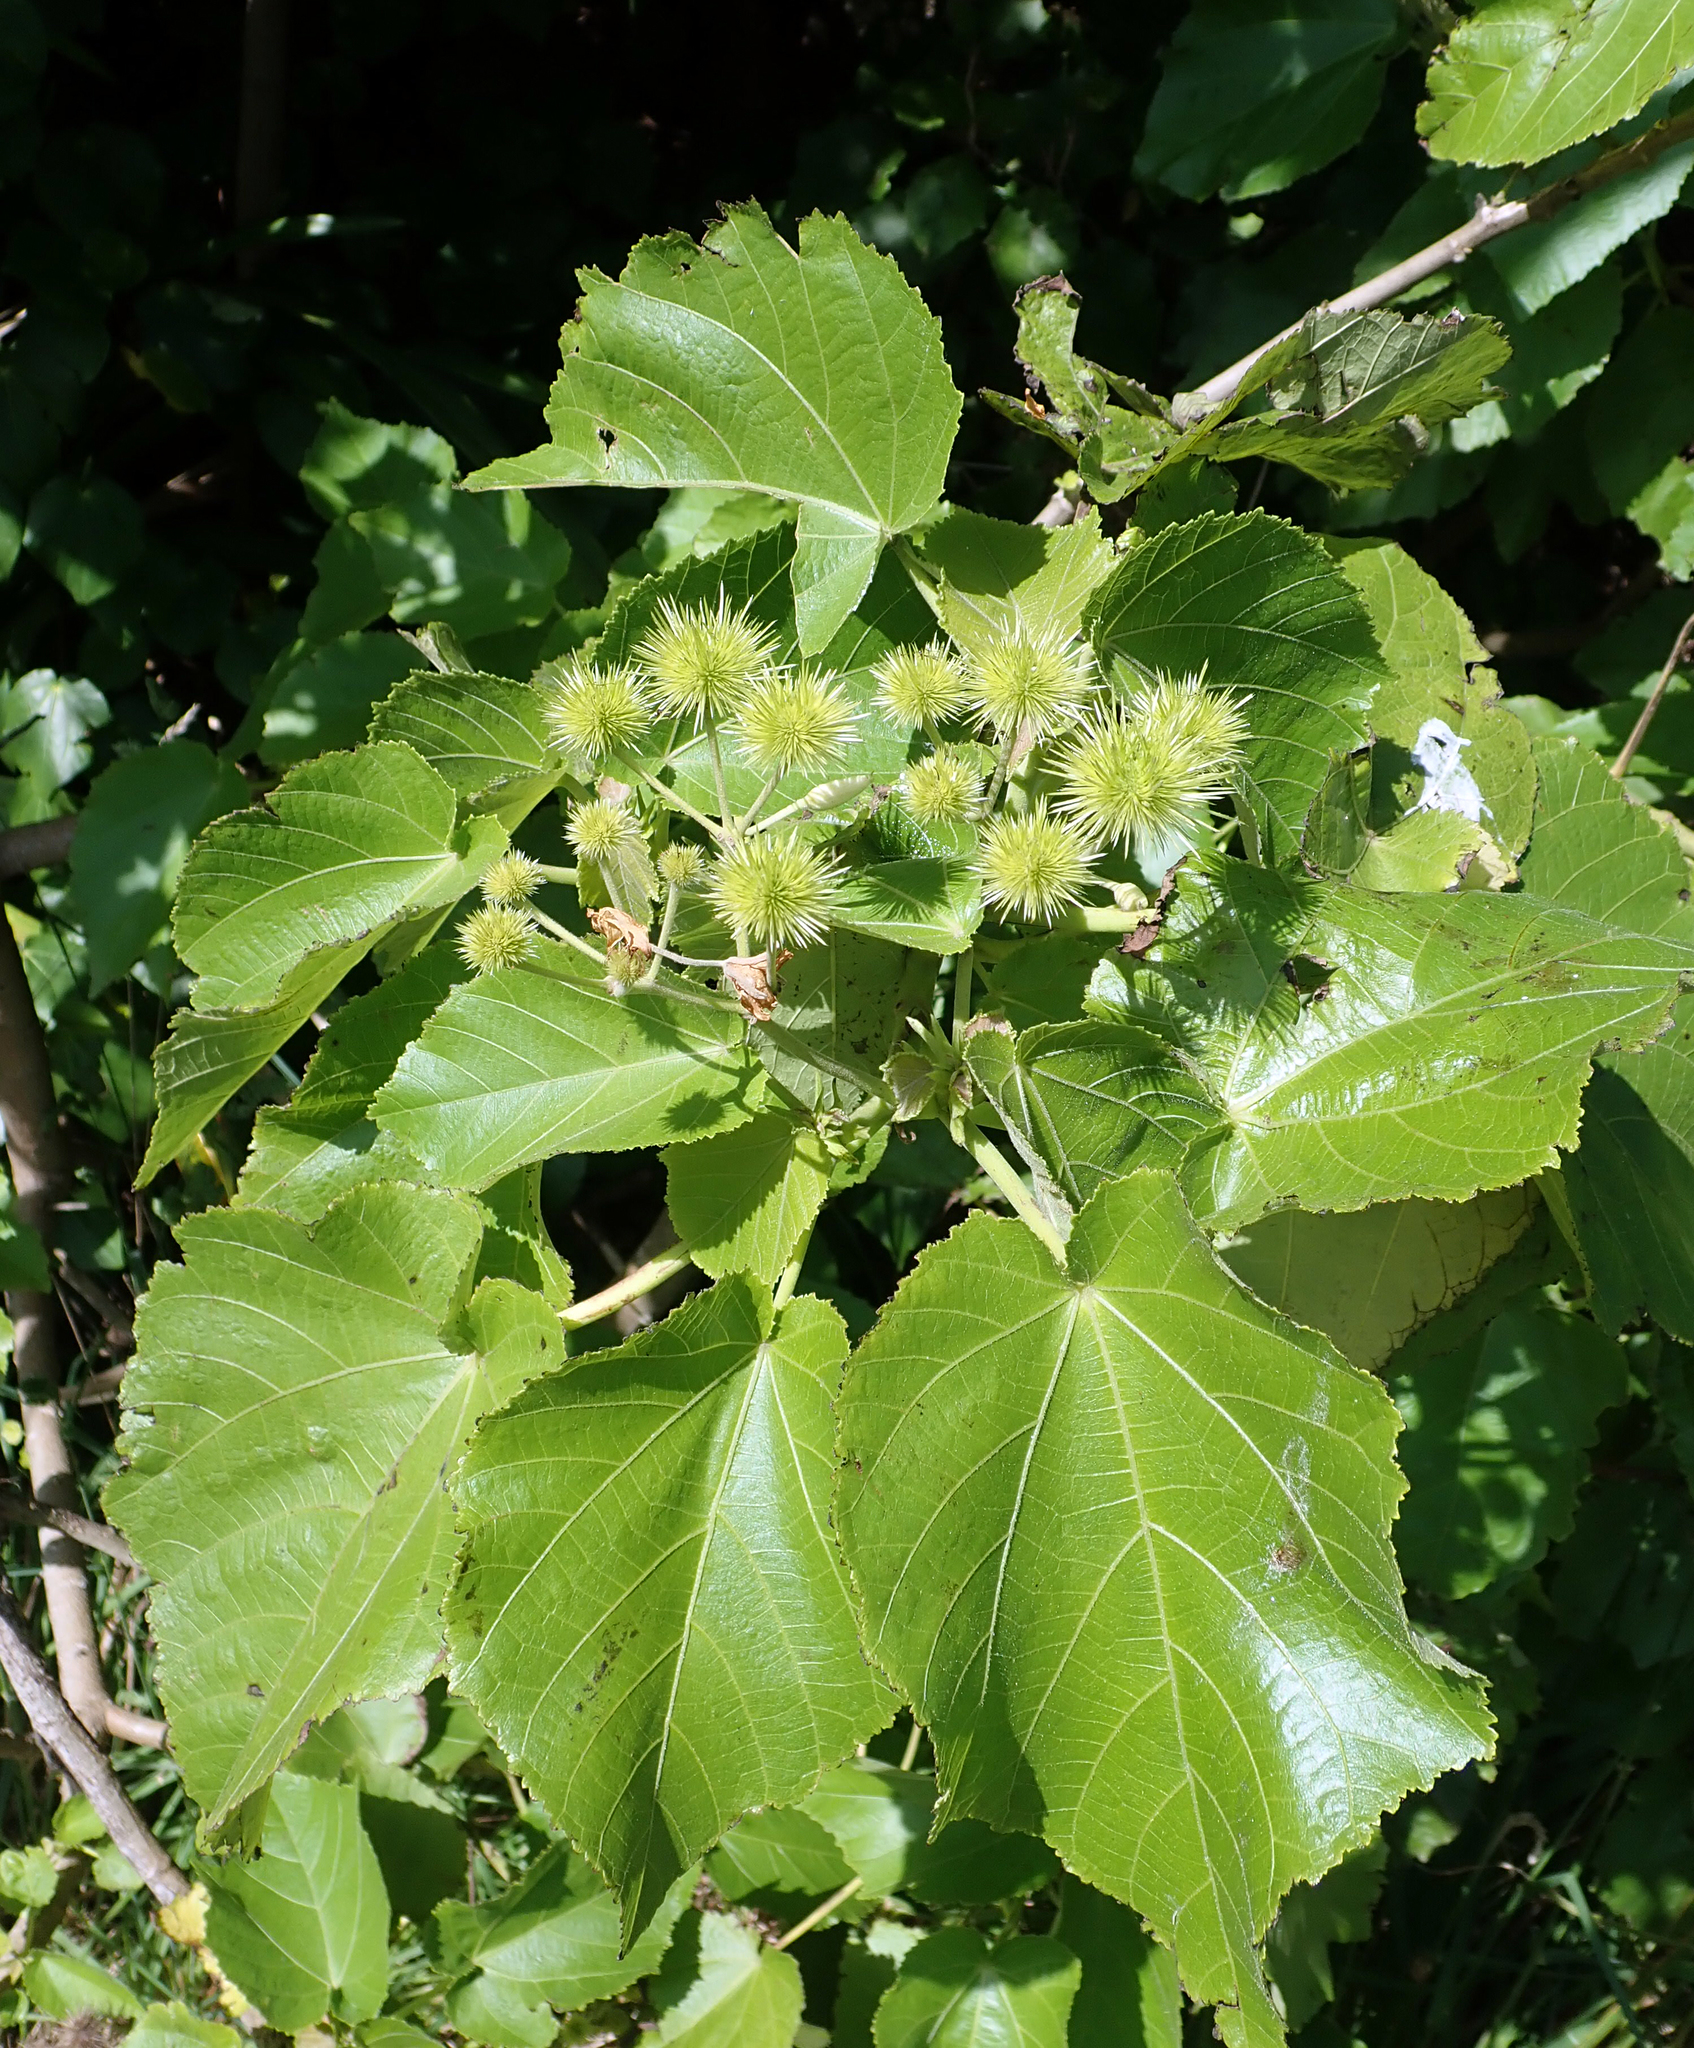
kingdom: Plantae
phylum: Tracheophyta
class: Magnoliopsida
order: Malvales
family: Malvaceae
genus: Entelea
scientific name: Entelea arborescens
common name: New zealand-mulberry
